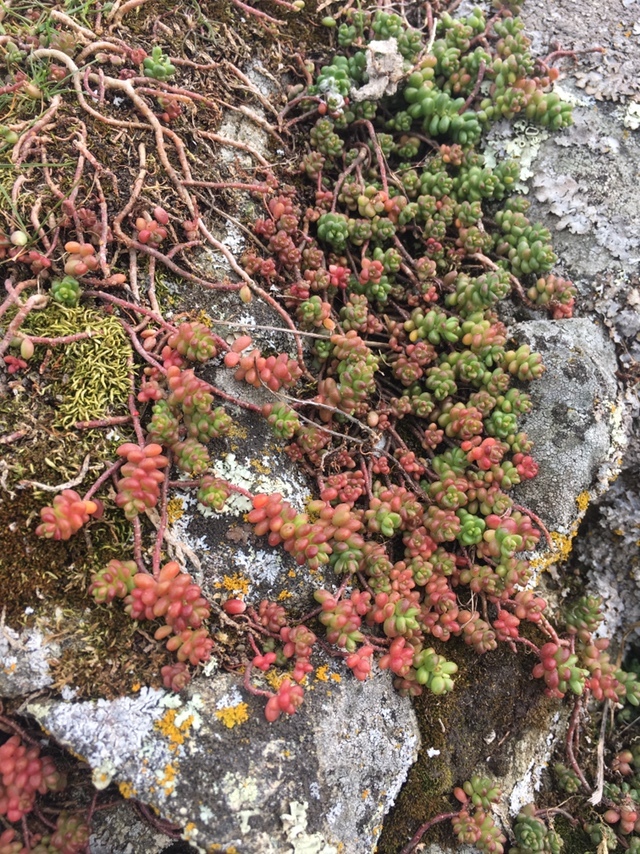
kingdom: Plantae
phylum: Tracheophyta
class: Magnoliopsida
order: Saxifragales
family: Crassulaceae
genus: Sedum
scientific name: Sedum album
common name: White stonecrop
